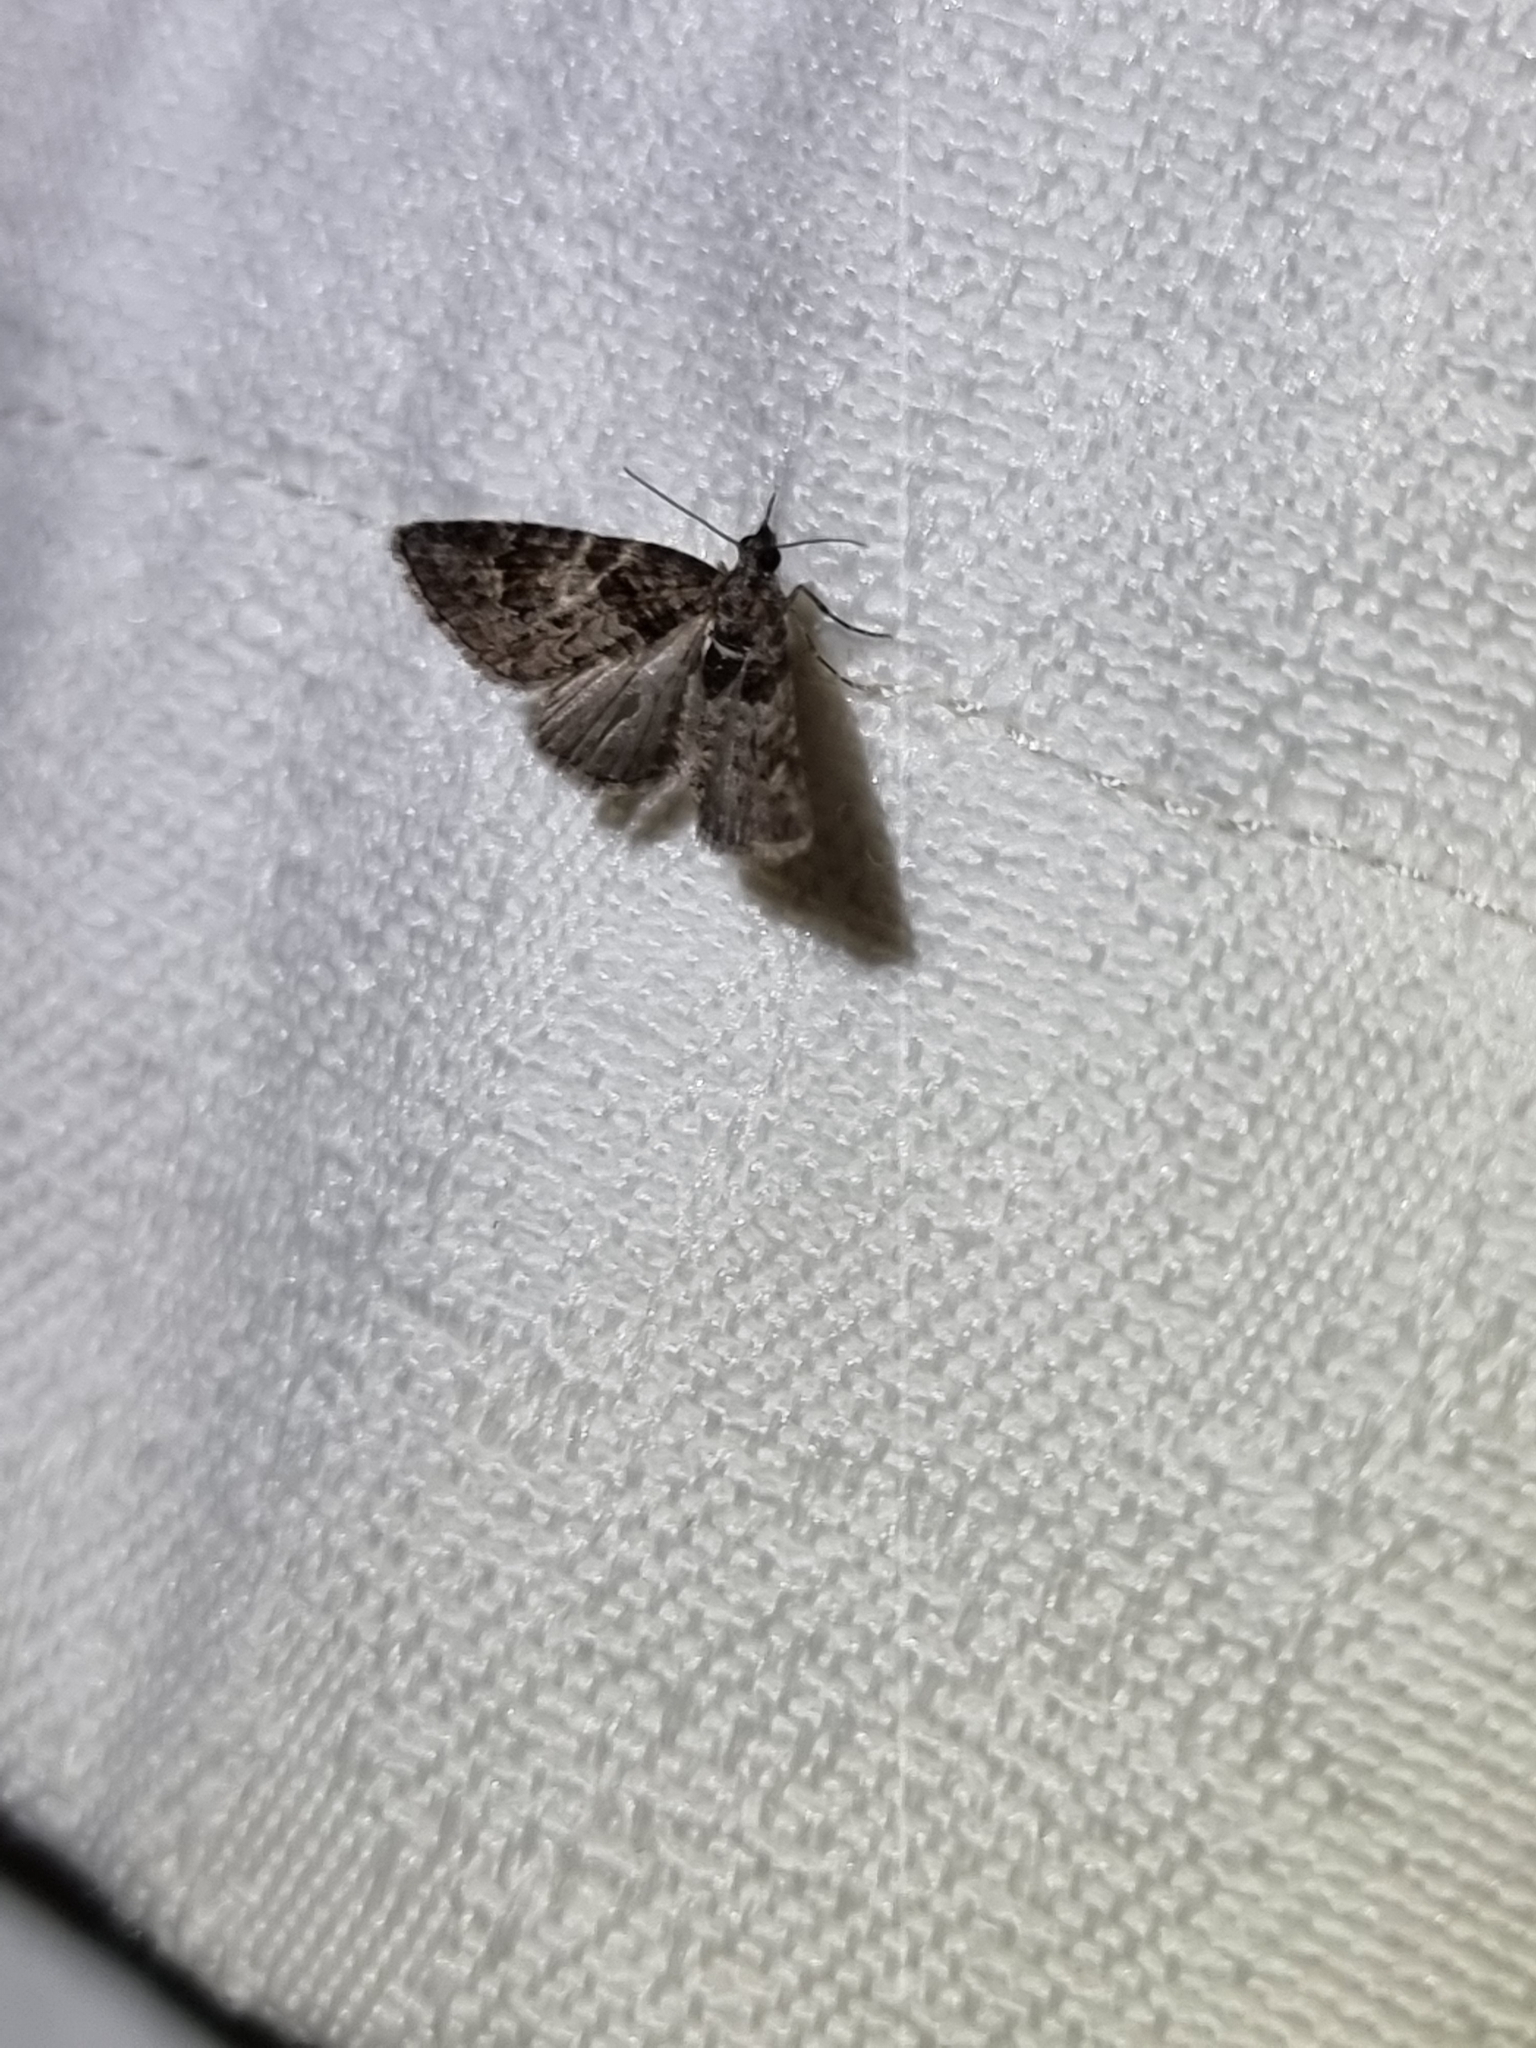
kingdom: Animalia
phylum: Arthropoda
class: Insecta
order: Lepidoptera
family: Geometridae
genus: Phrissogonus
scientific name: Phrissogonus laticostata
